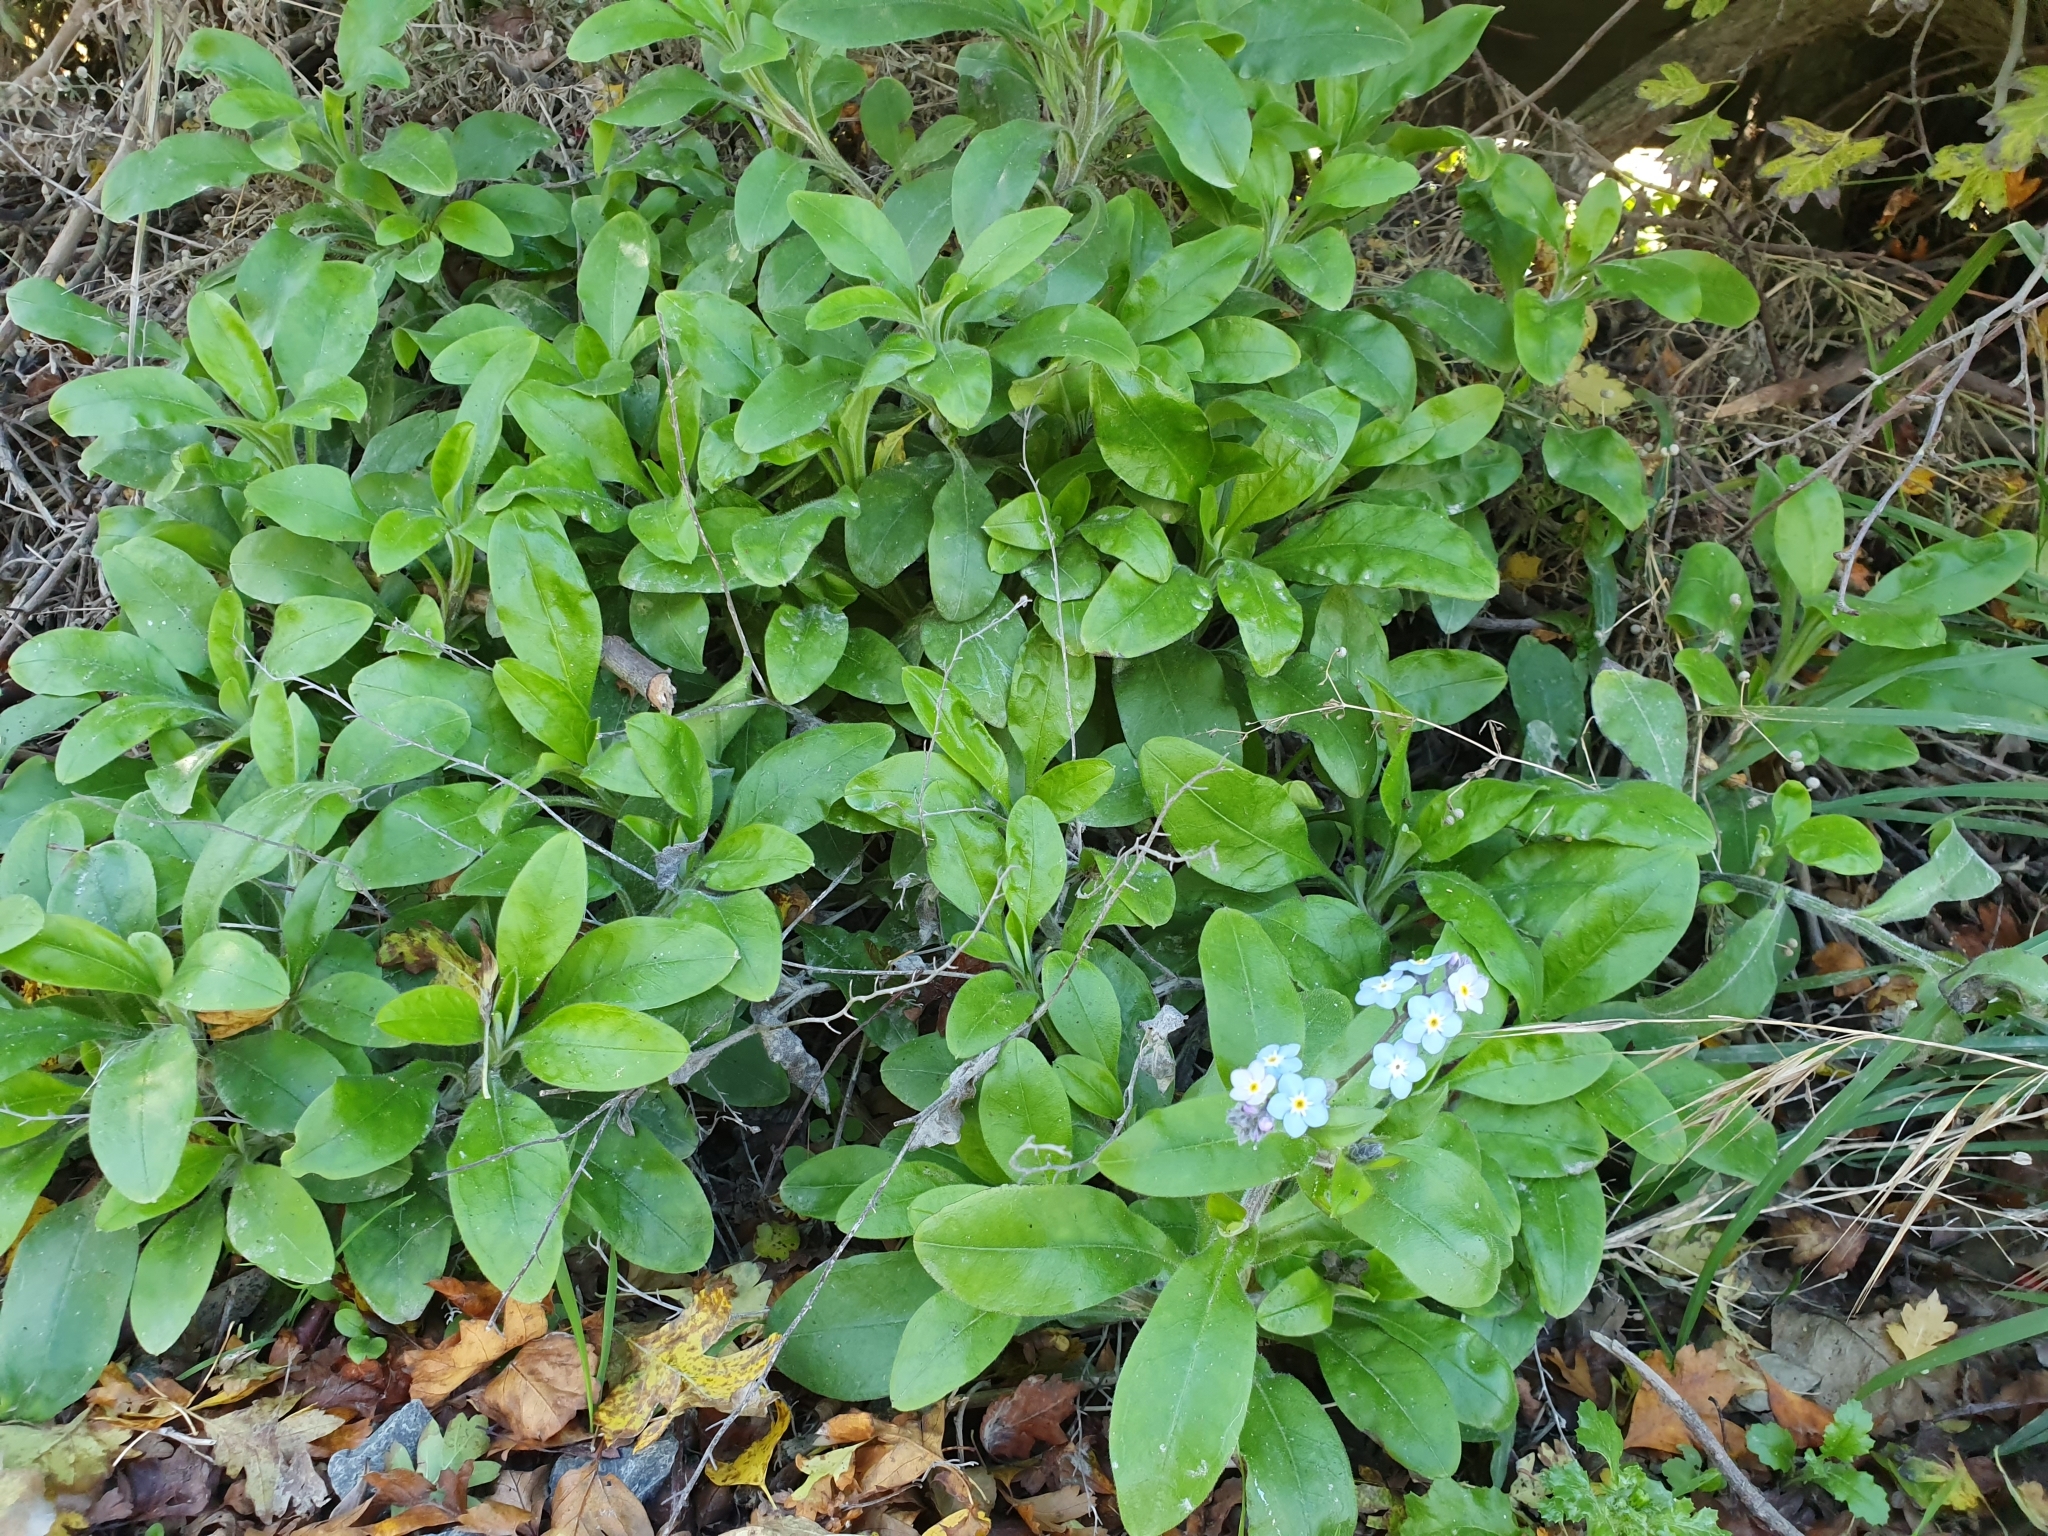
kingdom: Plantae
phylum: Tracheophyta
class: Magnoliopsida
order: Boraginales
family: Boraginaceae
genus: Myosotis
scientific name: Myosotis sylvatica
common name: Wood forget-me-not
